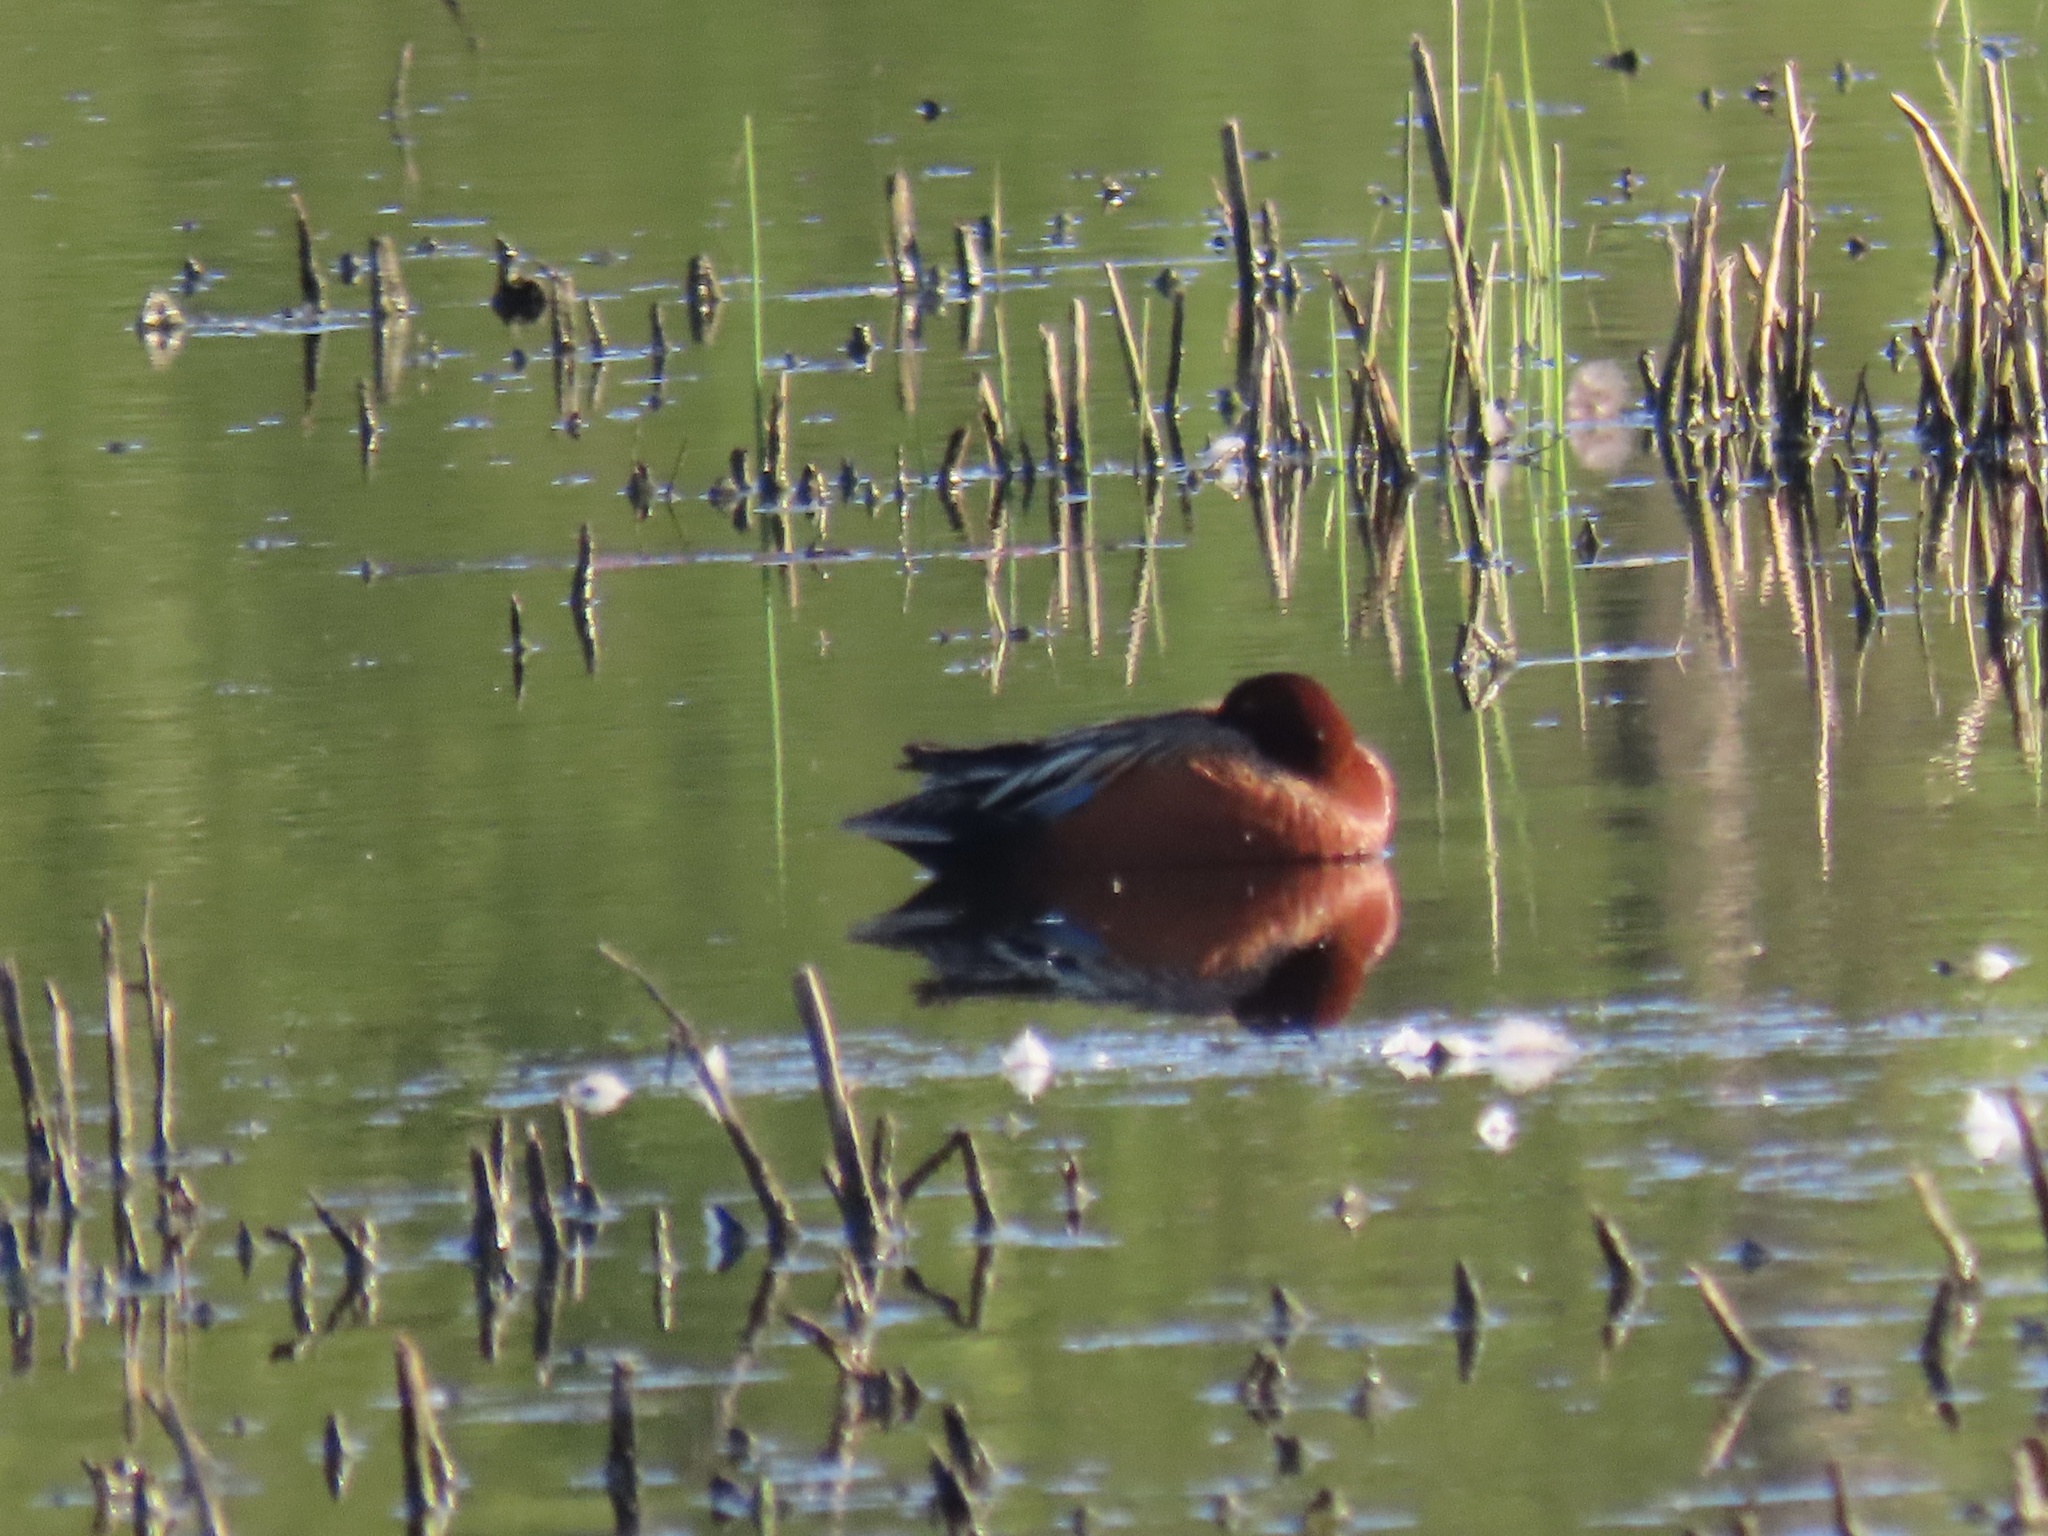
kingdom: Animalia
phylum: Chordata
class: Aves
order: Anseriformes
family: Anatidae
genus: Spatula
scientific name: Spatula cyanoptera
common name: Cinnamon teal
